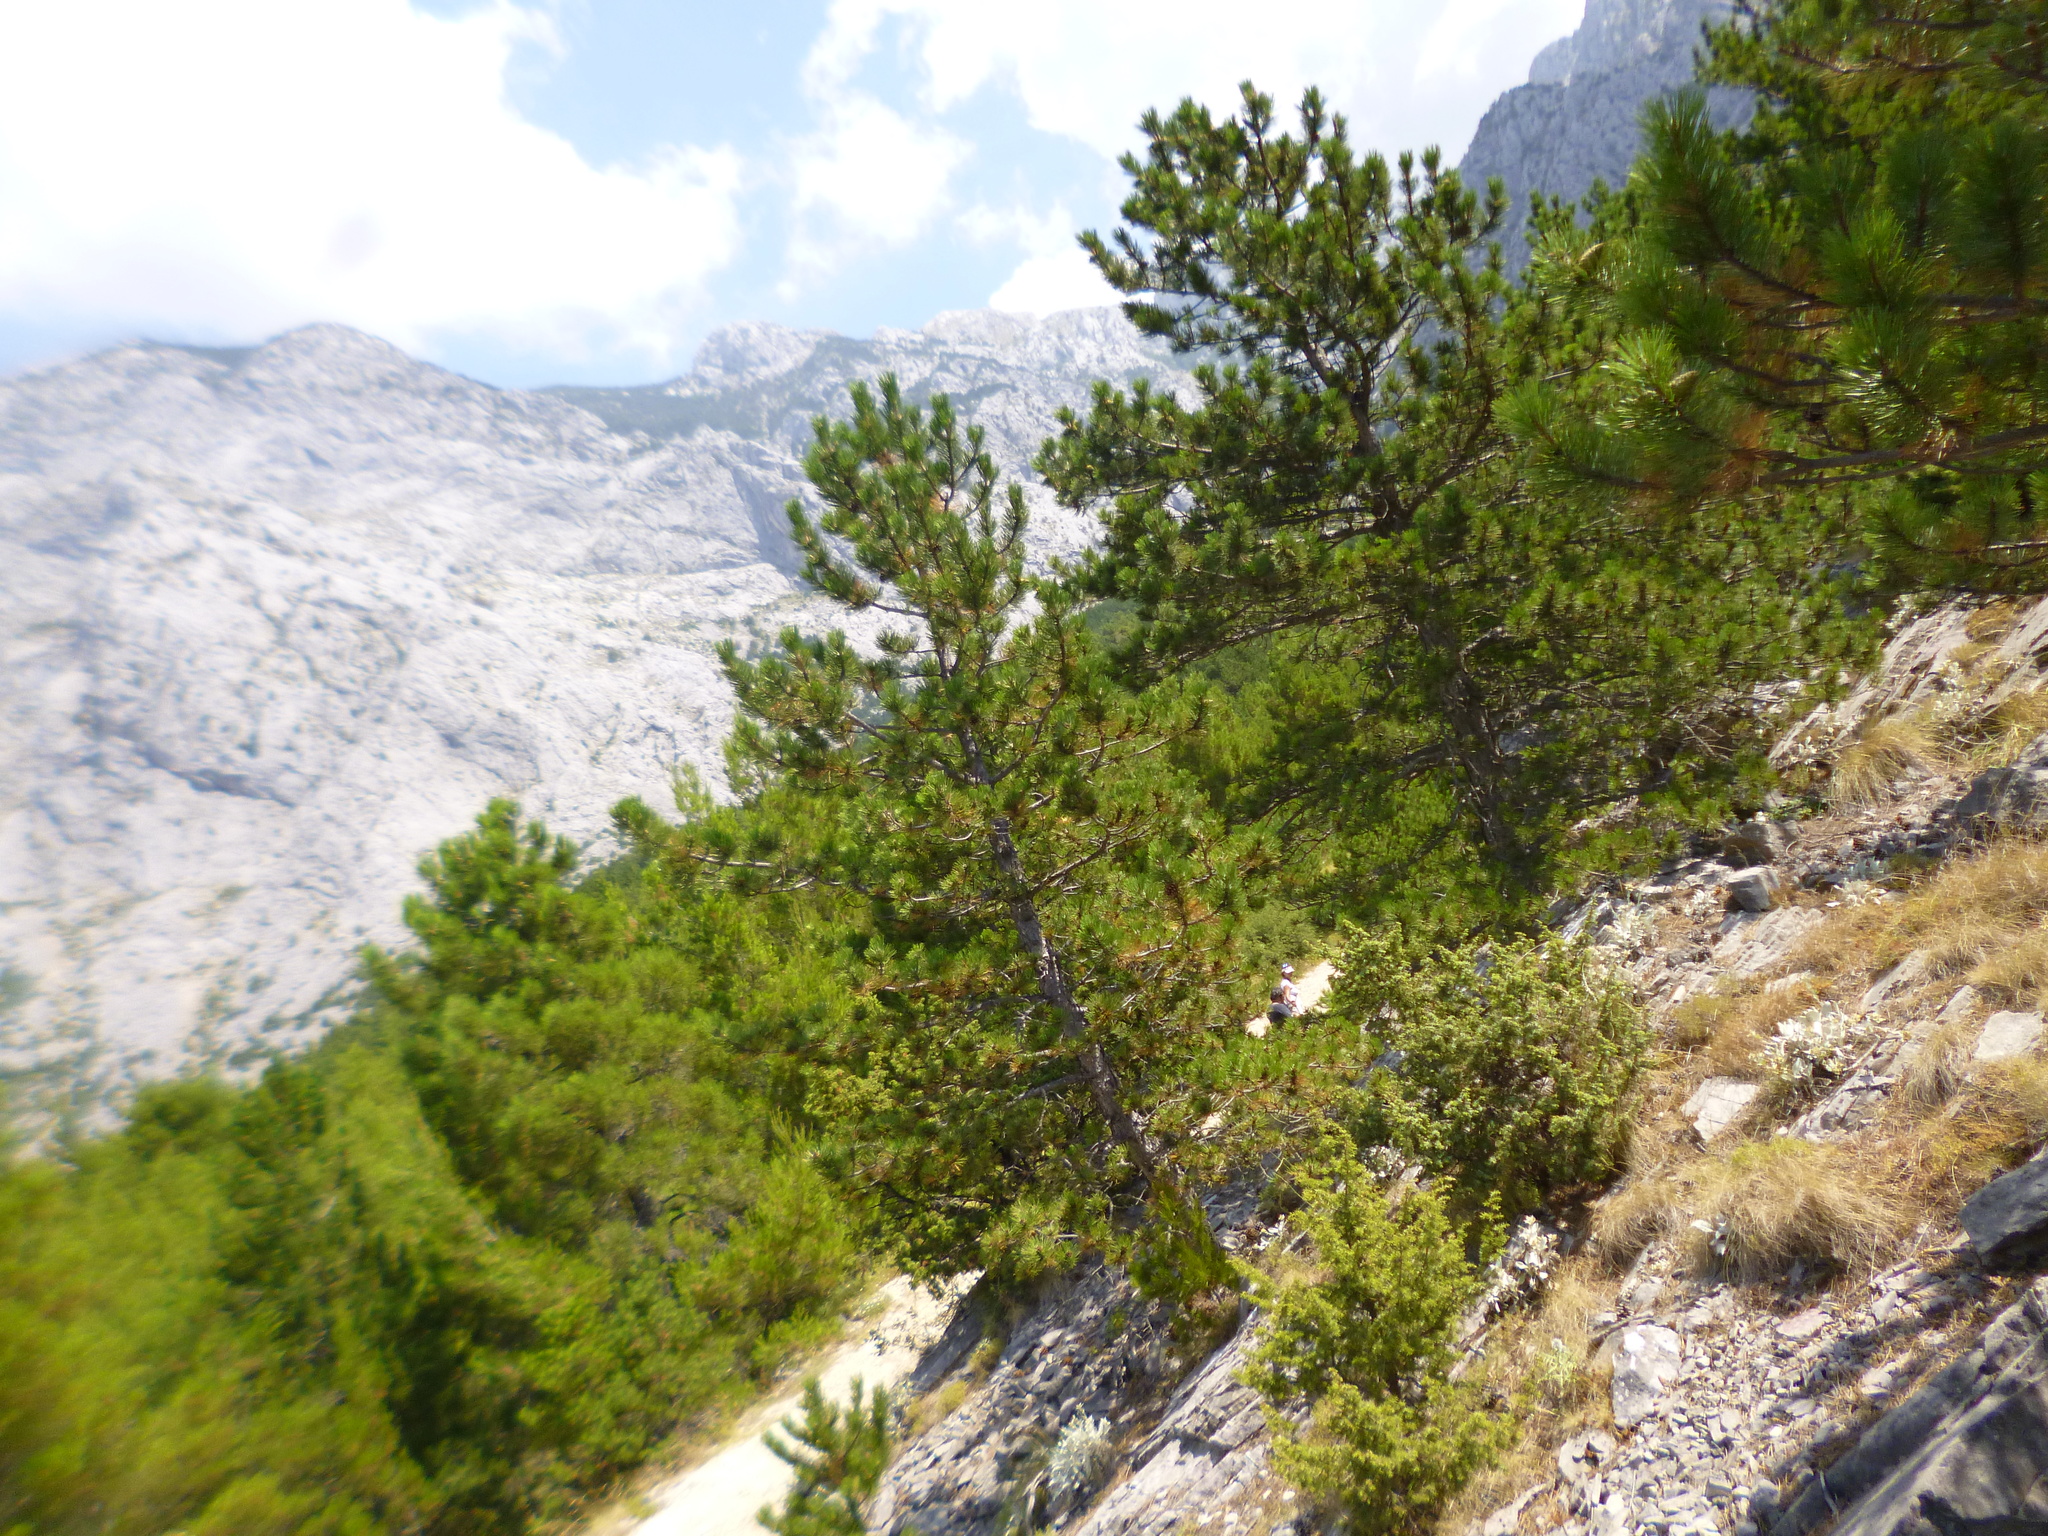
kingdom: Plantae
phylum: Tracheophyta
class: Pinopsida
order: Pinales
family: Pinaceae
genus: Pinus
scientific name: Pinus nigra
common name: Austrian pine
